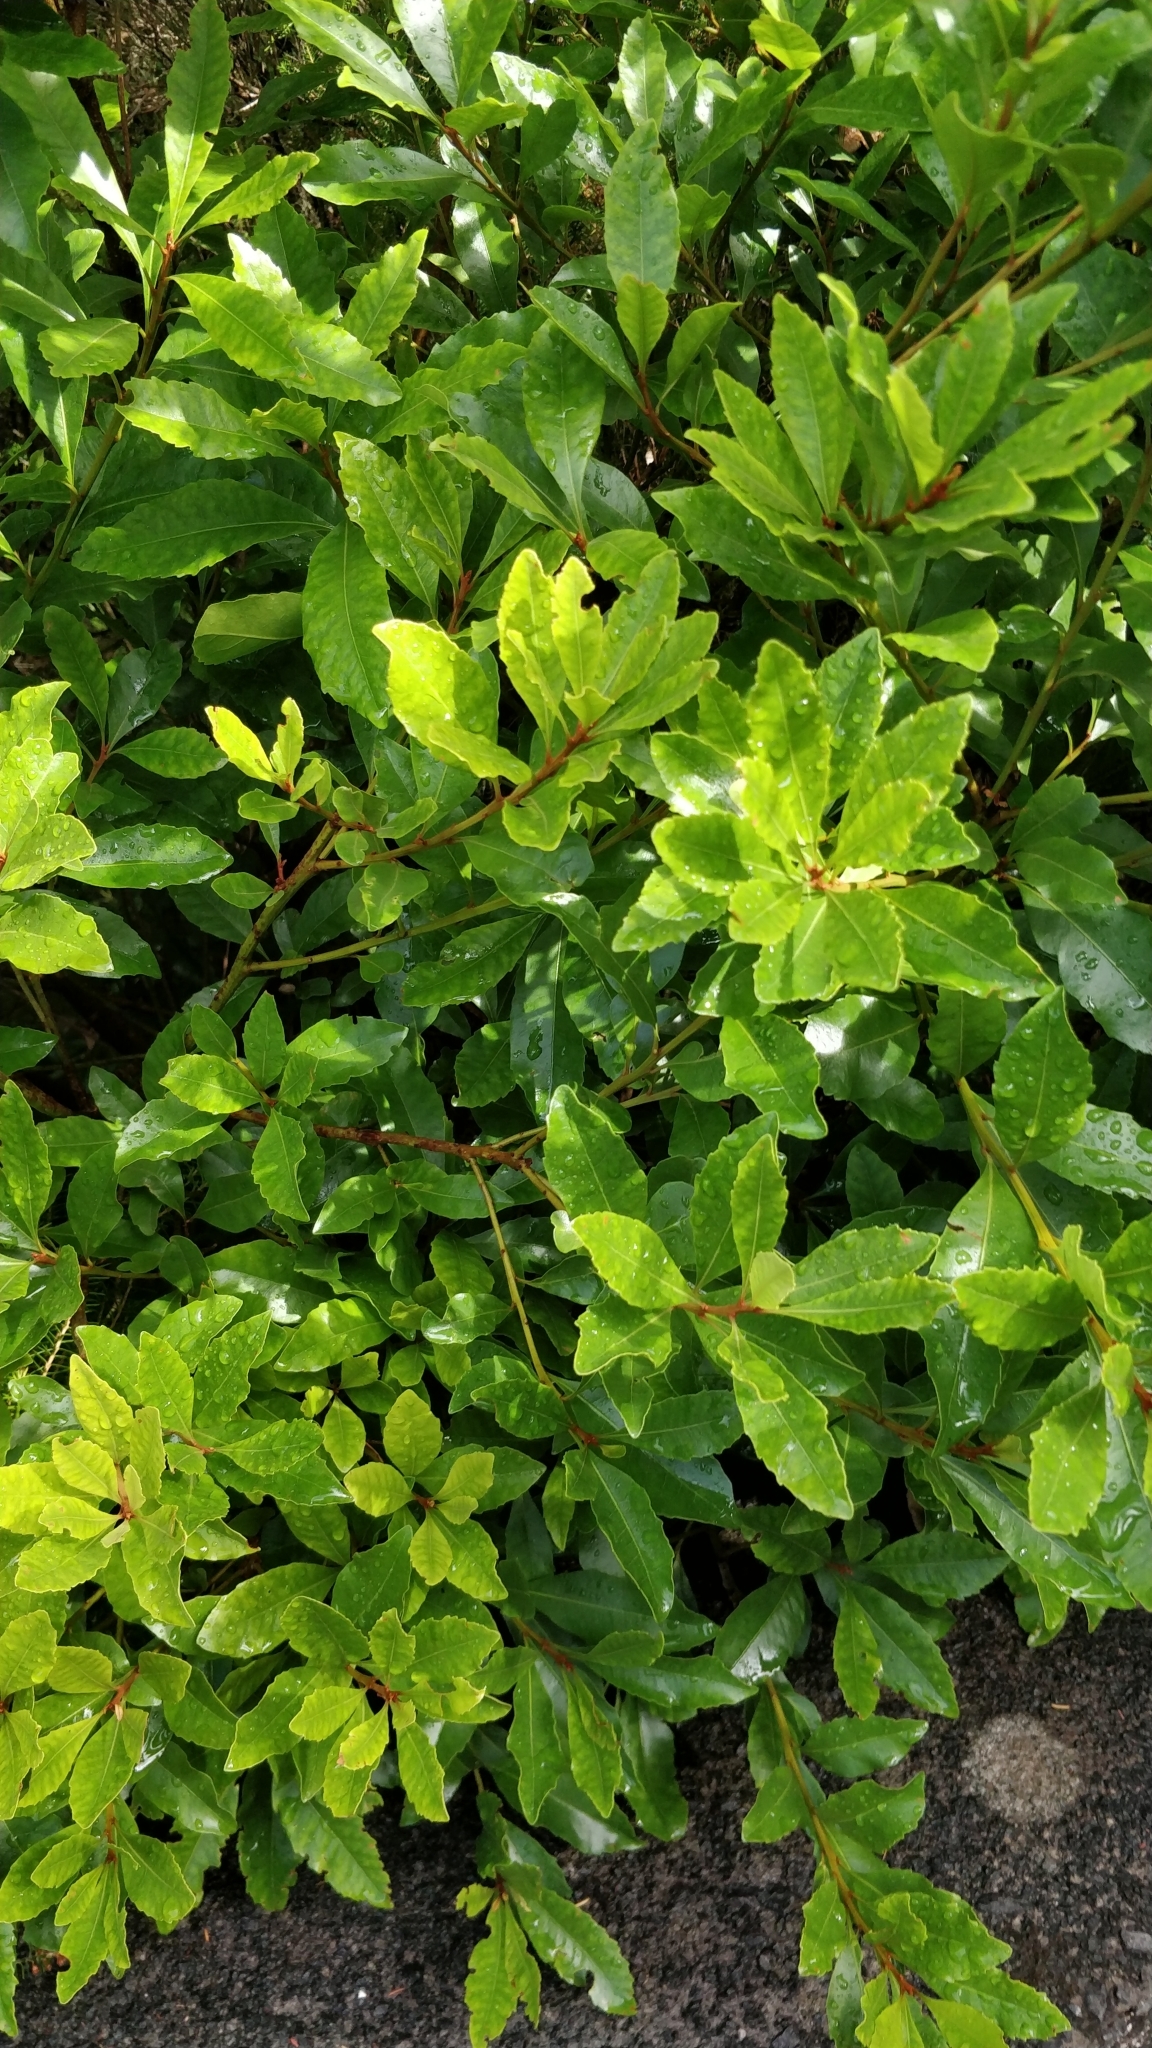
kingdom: Plantae
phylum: Tracheophyta
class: Magnoliopsida
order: Fagales
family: Myricaceae
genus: Morella
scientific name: Morella faya
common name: Firetree
